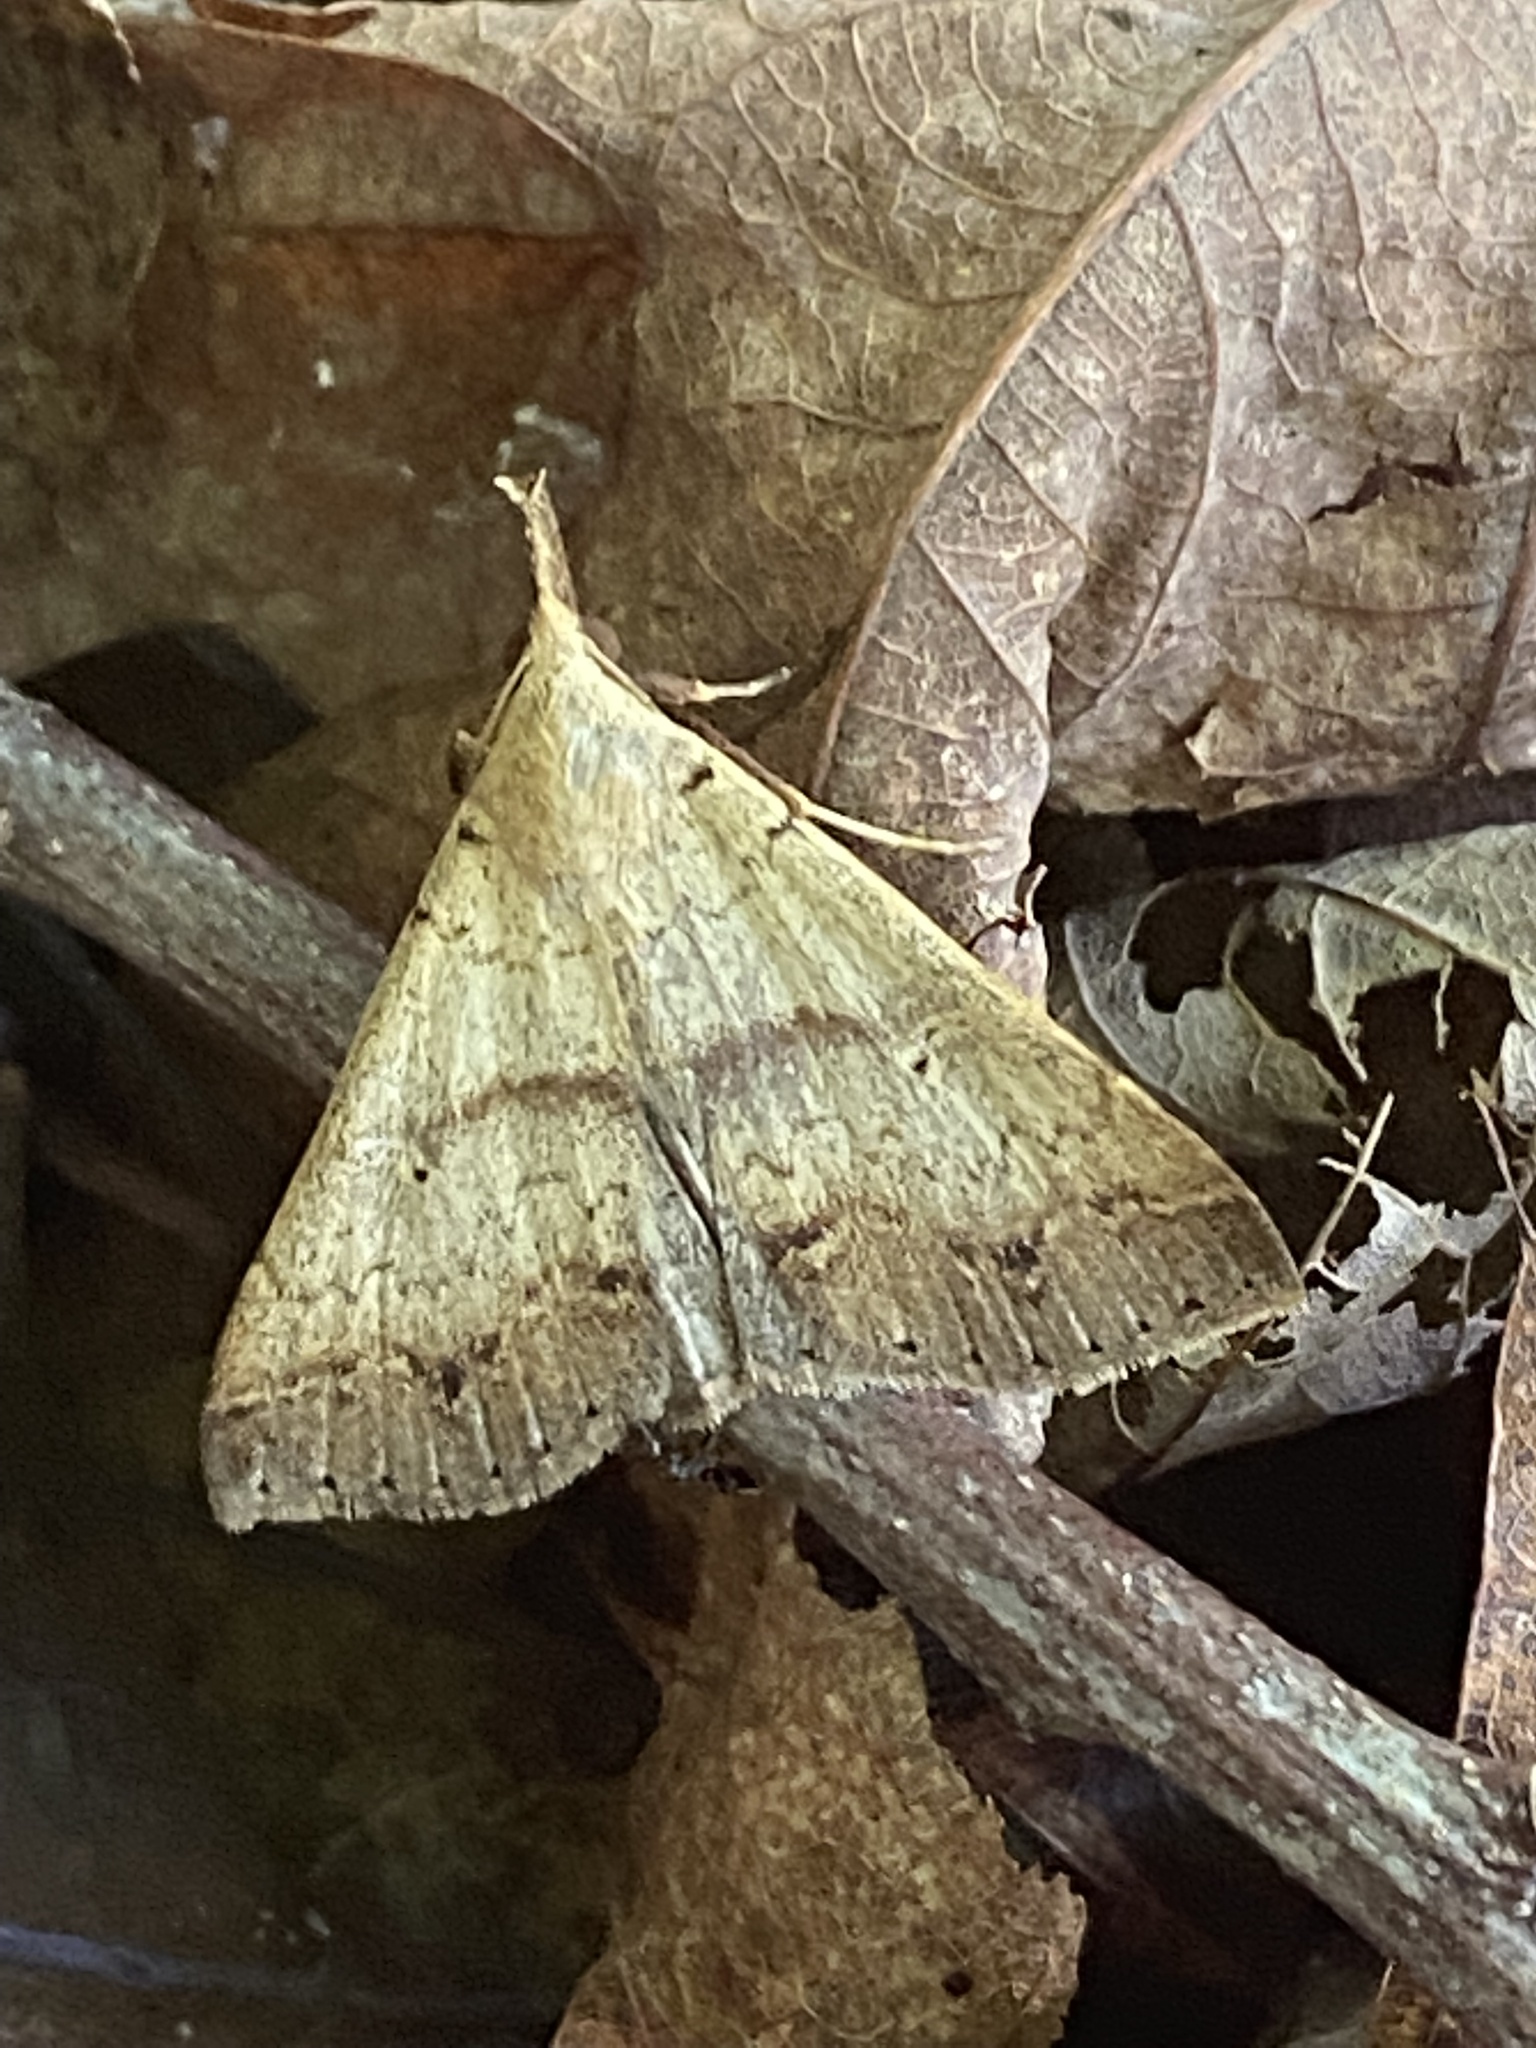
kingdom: Animalia
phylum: Arthropoda
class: Insecta
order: Lepidoptera
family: Erebidae
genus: Renia
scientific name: Renia discoloralis
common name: Discolored renia moth
